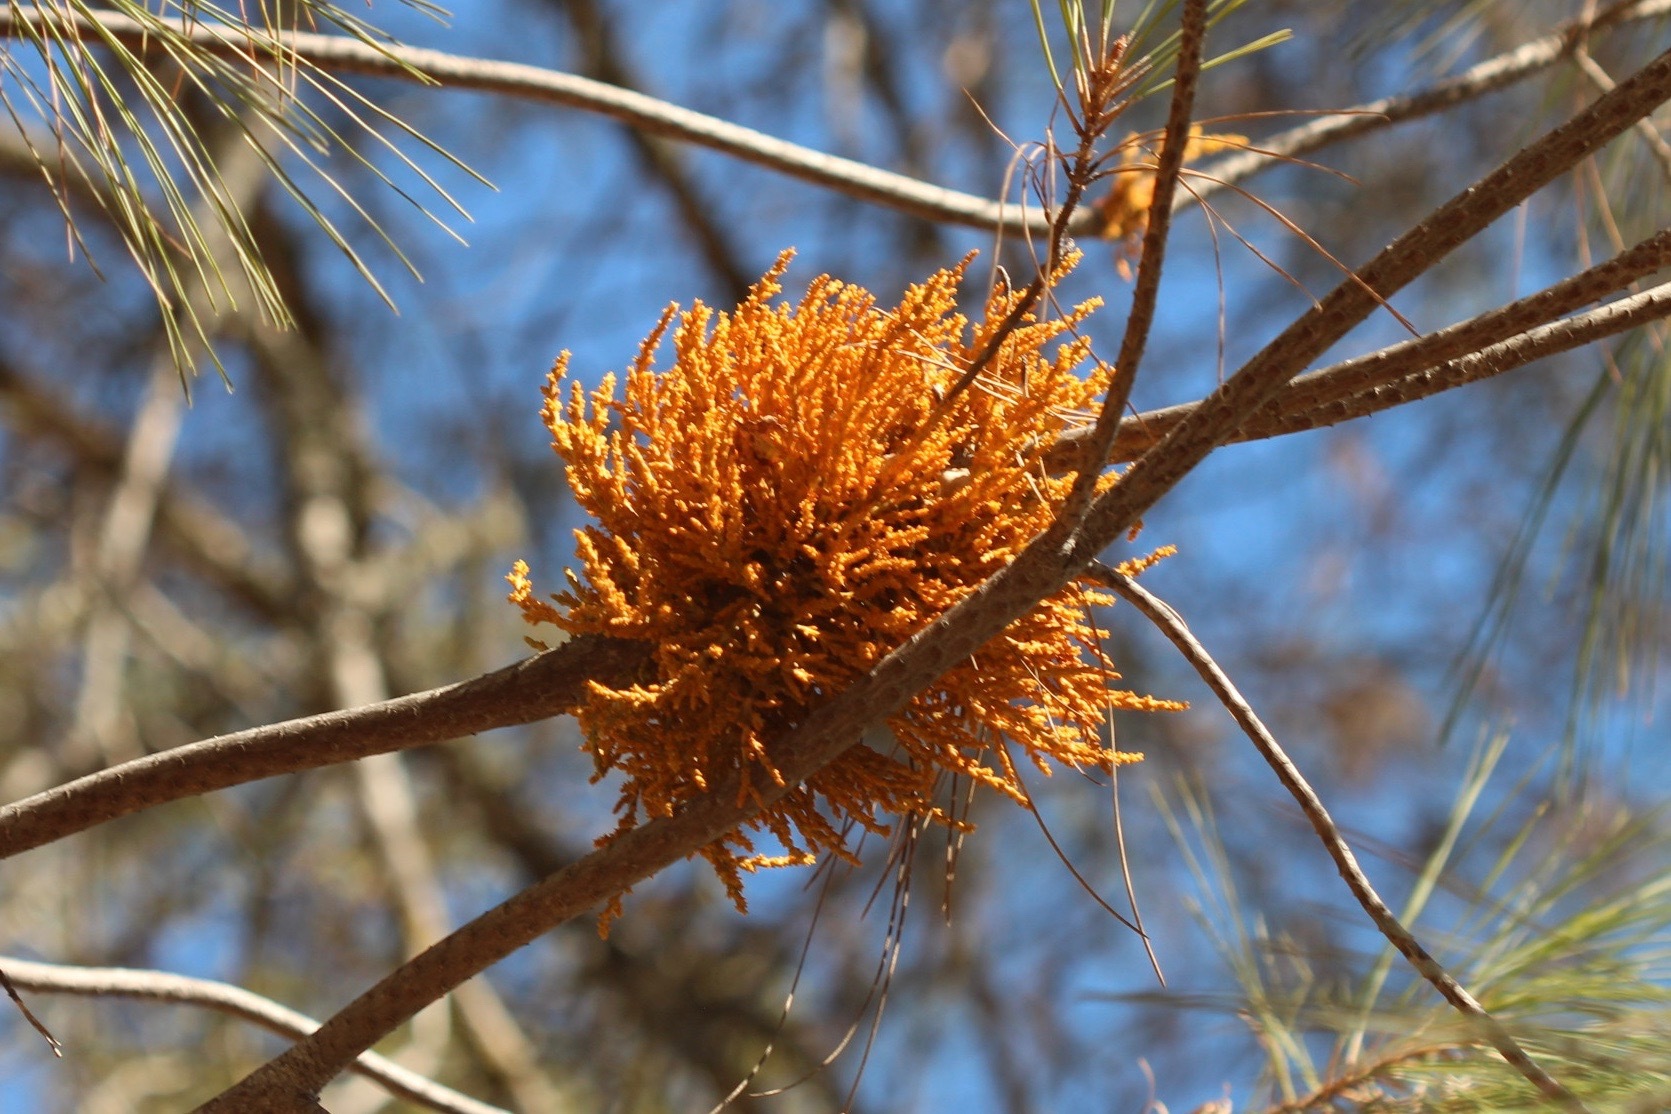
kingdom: Plantae
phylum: Tracheophyta
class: Magnoliopsida
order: Santalales
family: Viscaceae
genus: Arceuthobium
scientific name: Arceuthobium campylopodum
